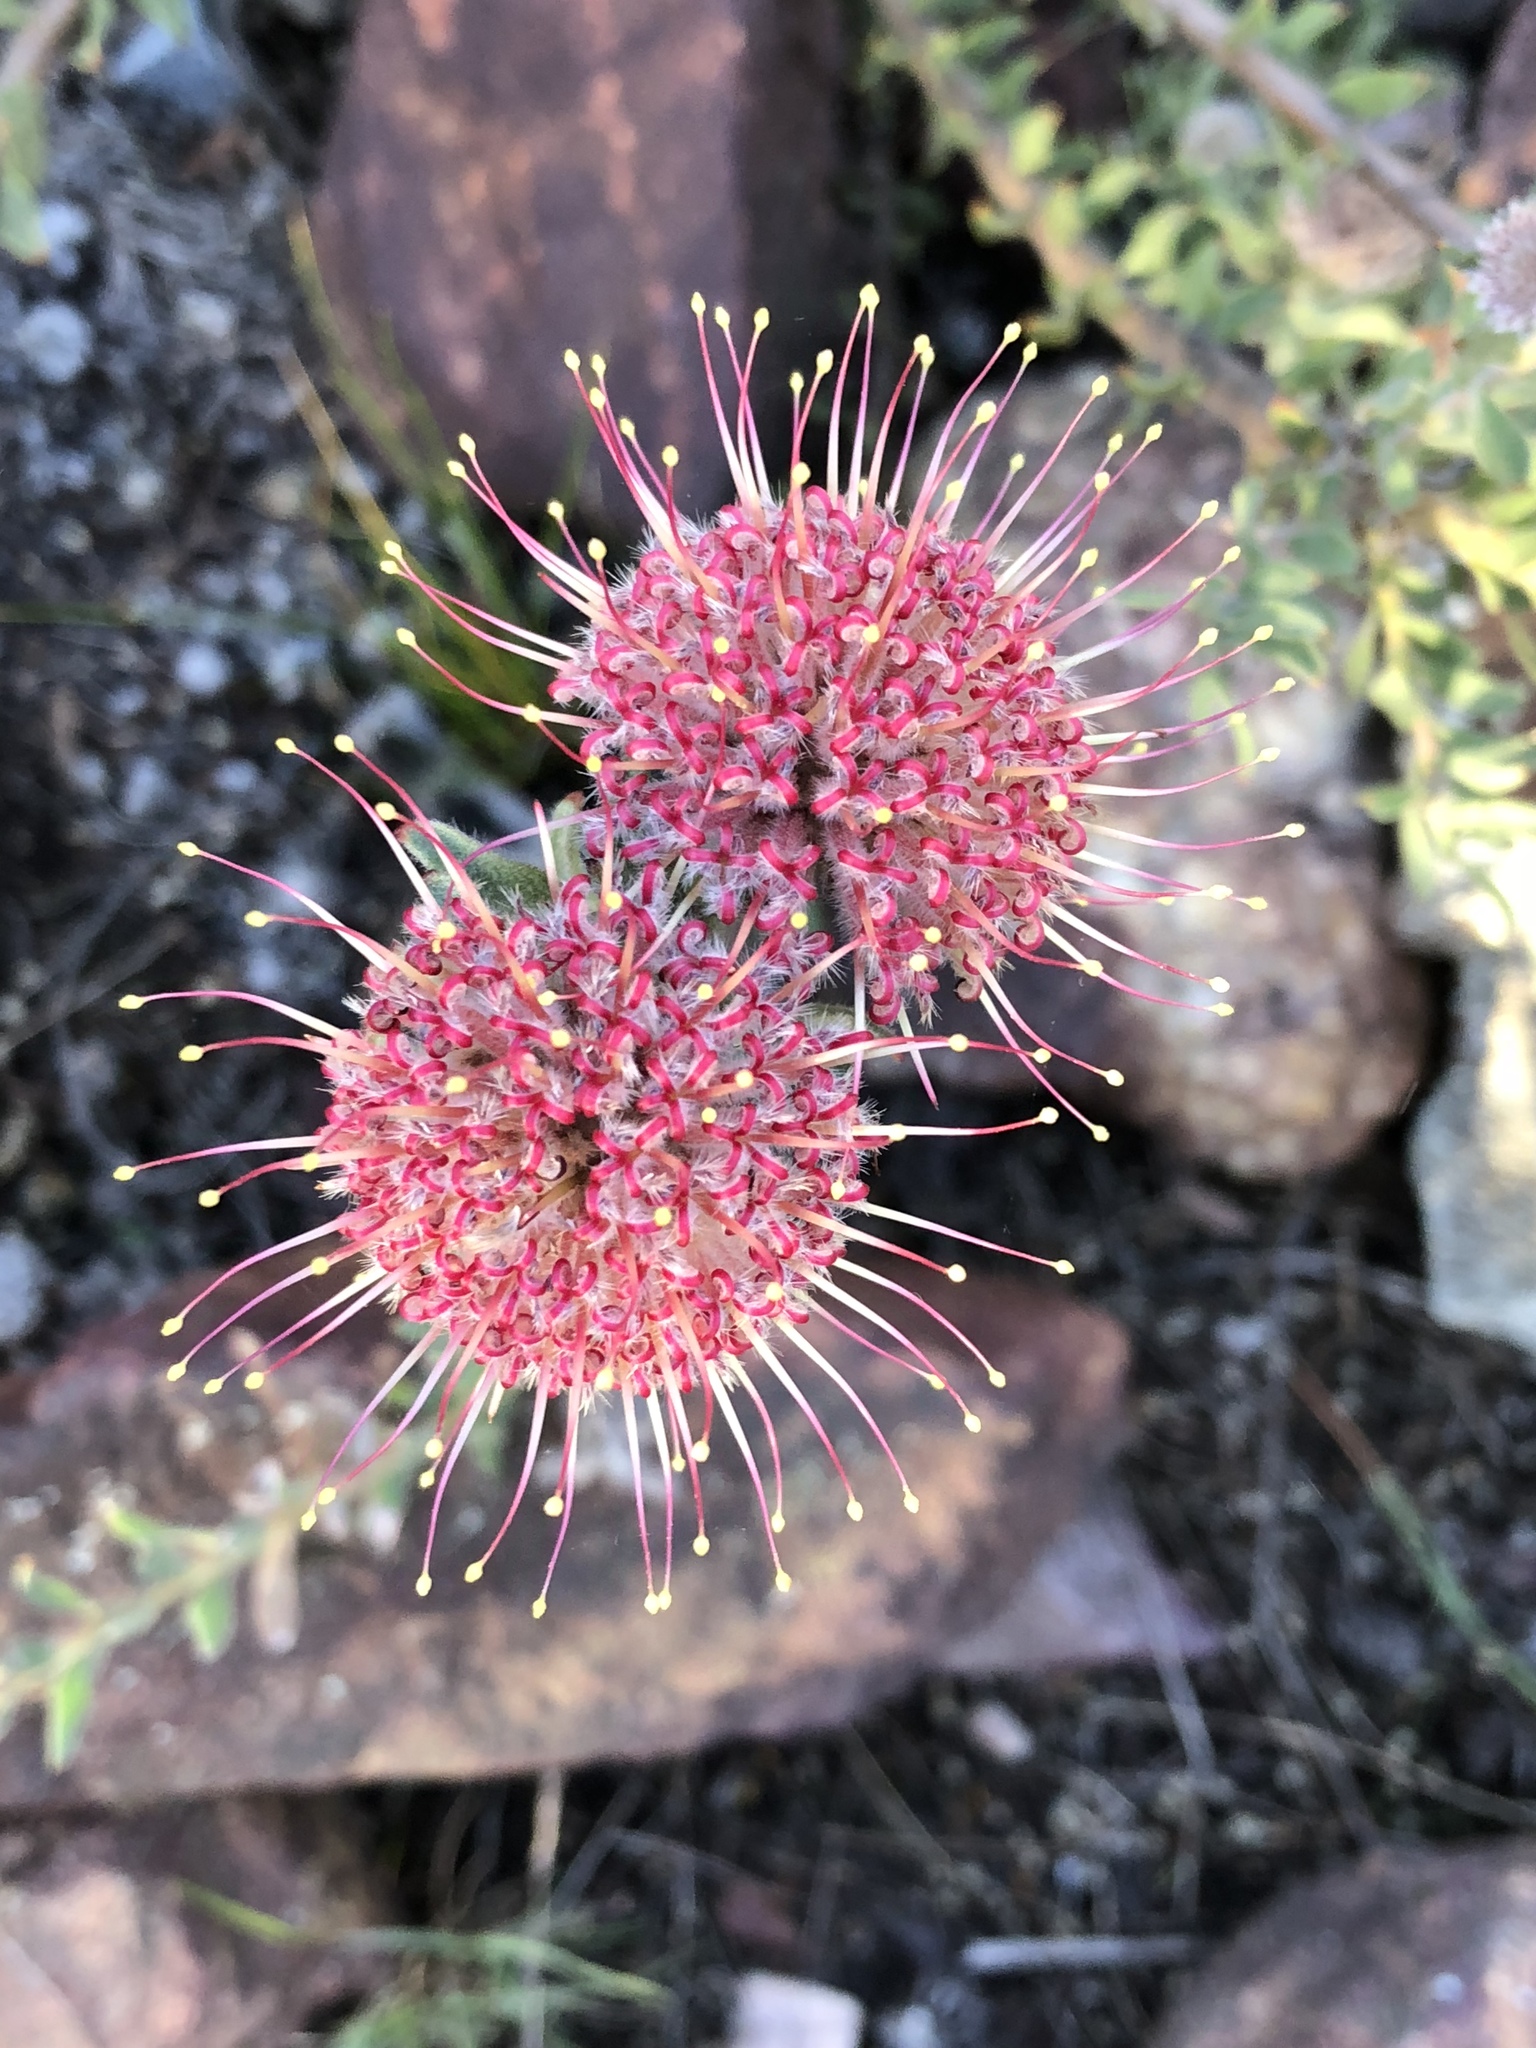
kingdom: Plantae
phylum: Tracheophyta
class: Magnoliopsida
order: Proteales
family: Proteaceae
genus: Leucospermum
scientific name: Leucospermum calligerum
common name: Arid pincushion
